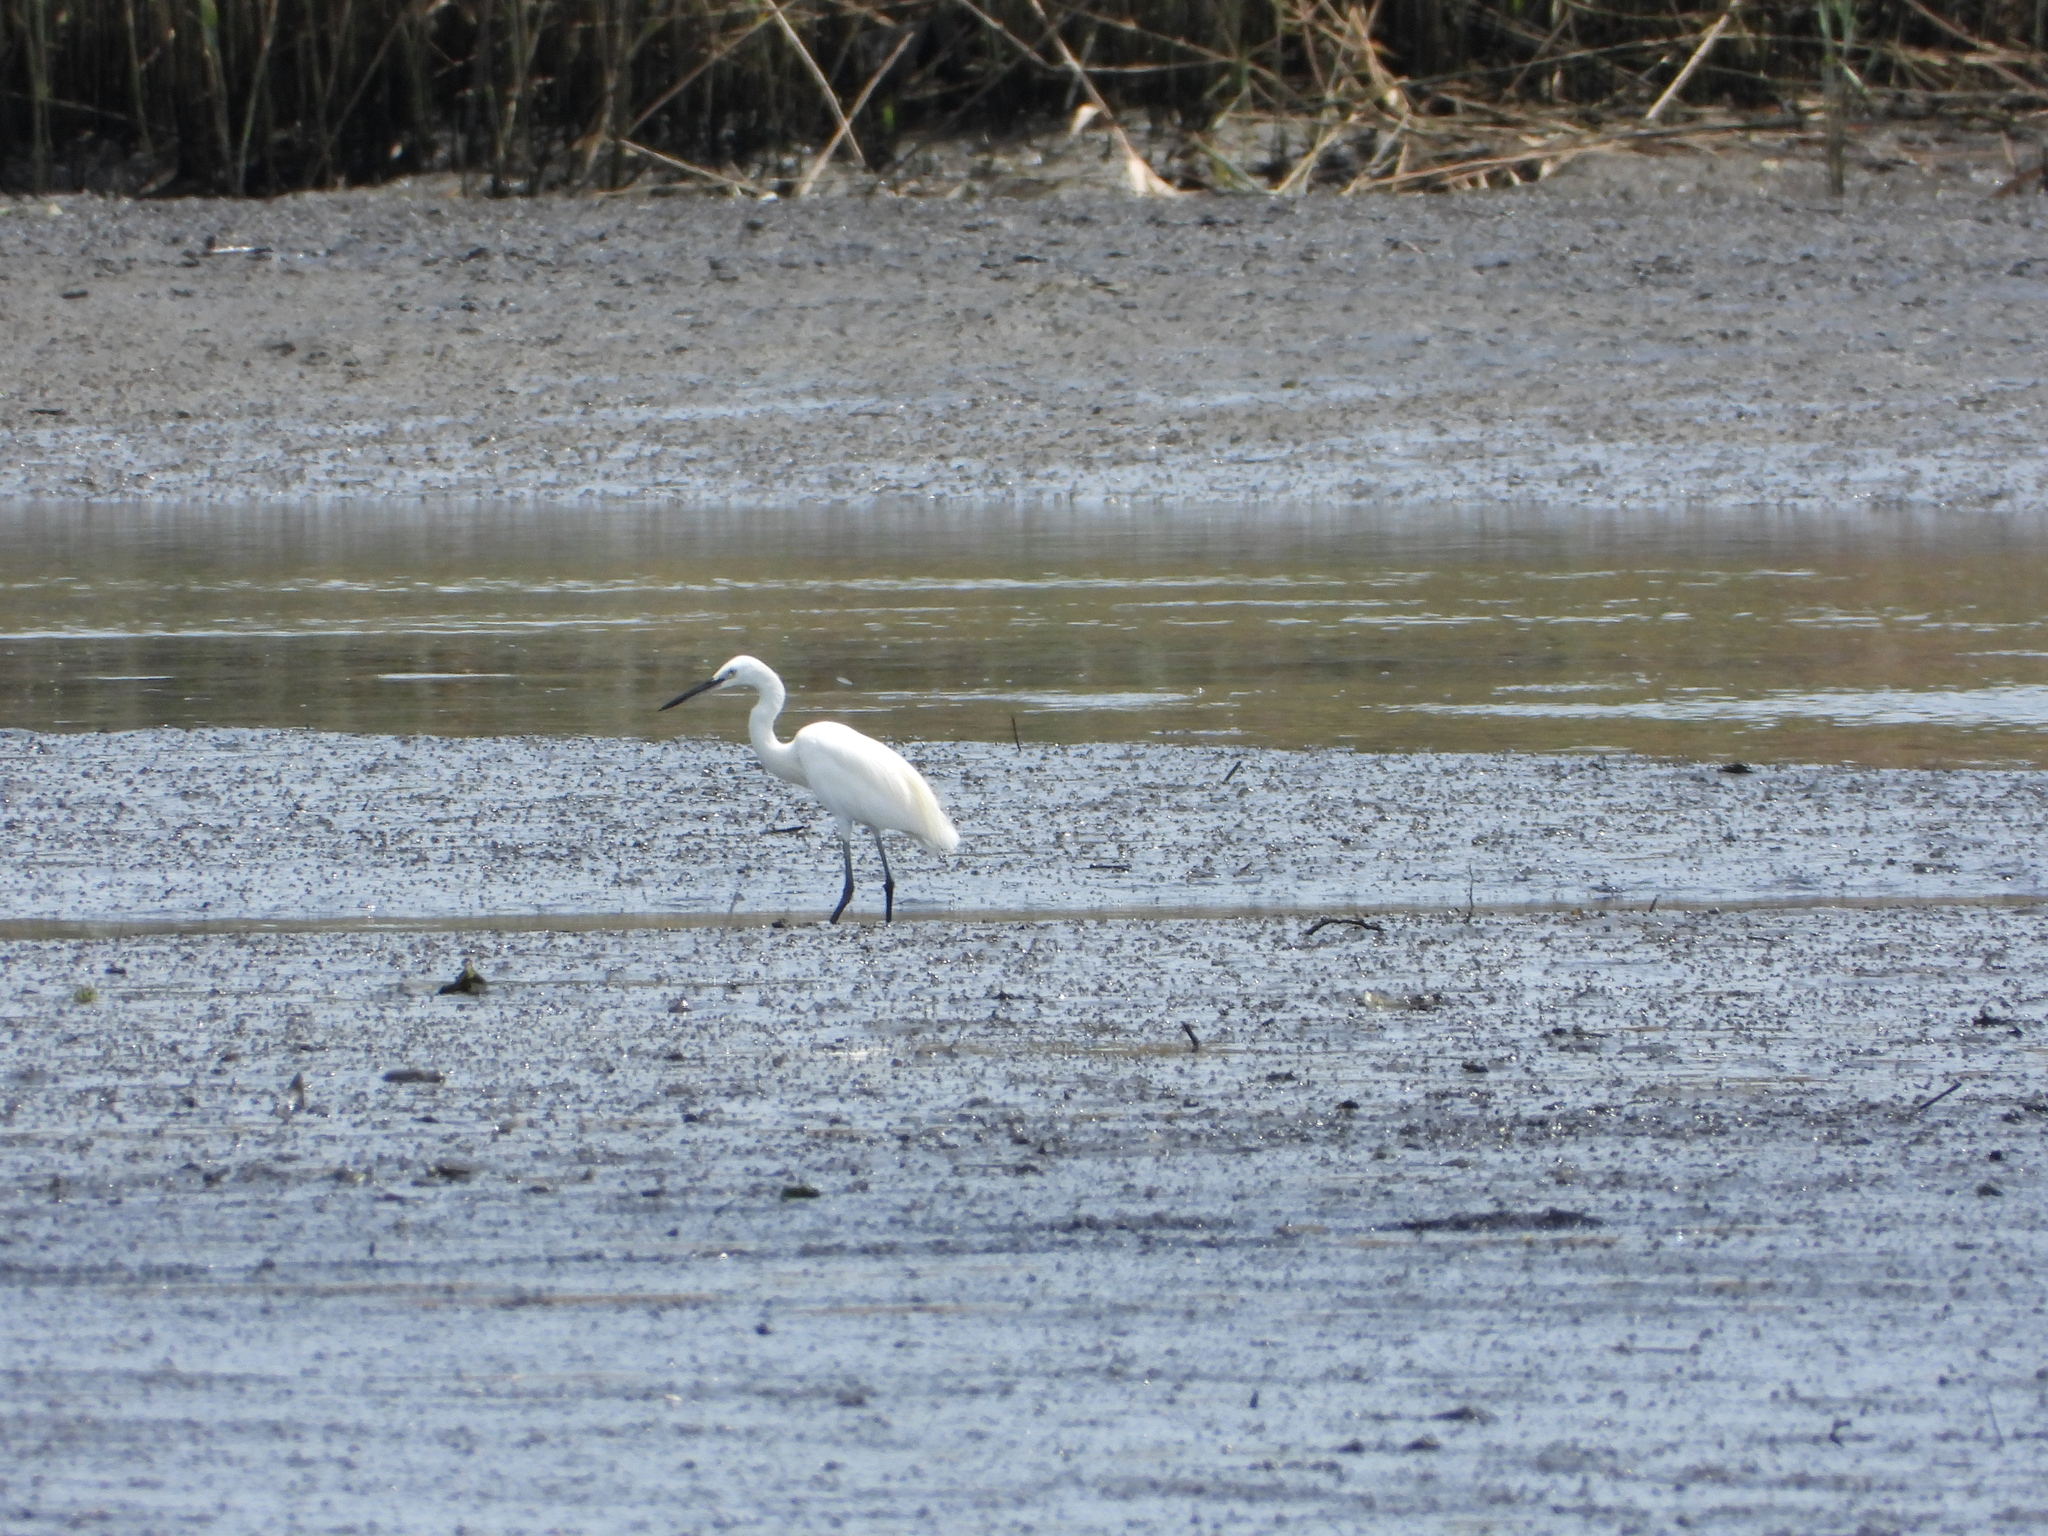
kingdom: Animalia
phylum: Chordata
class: Aves
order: Pelecaniformes
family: Ardeidae
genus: Egretta
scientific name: Egretta garzetta
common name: Little egret
